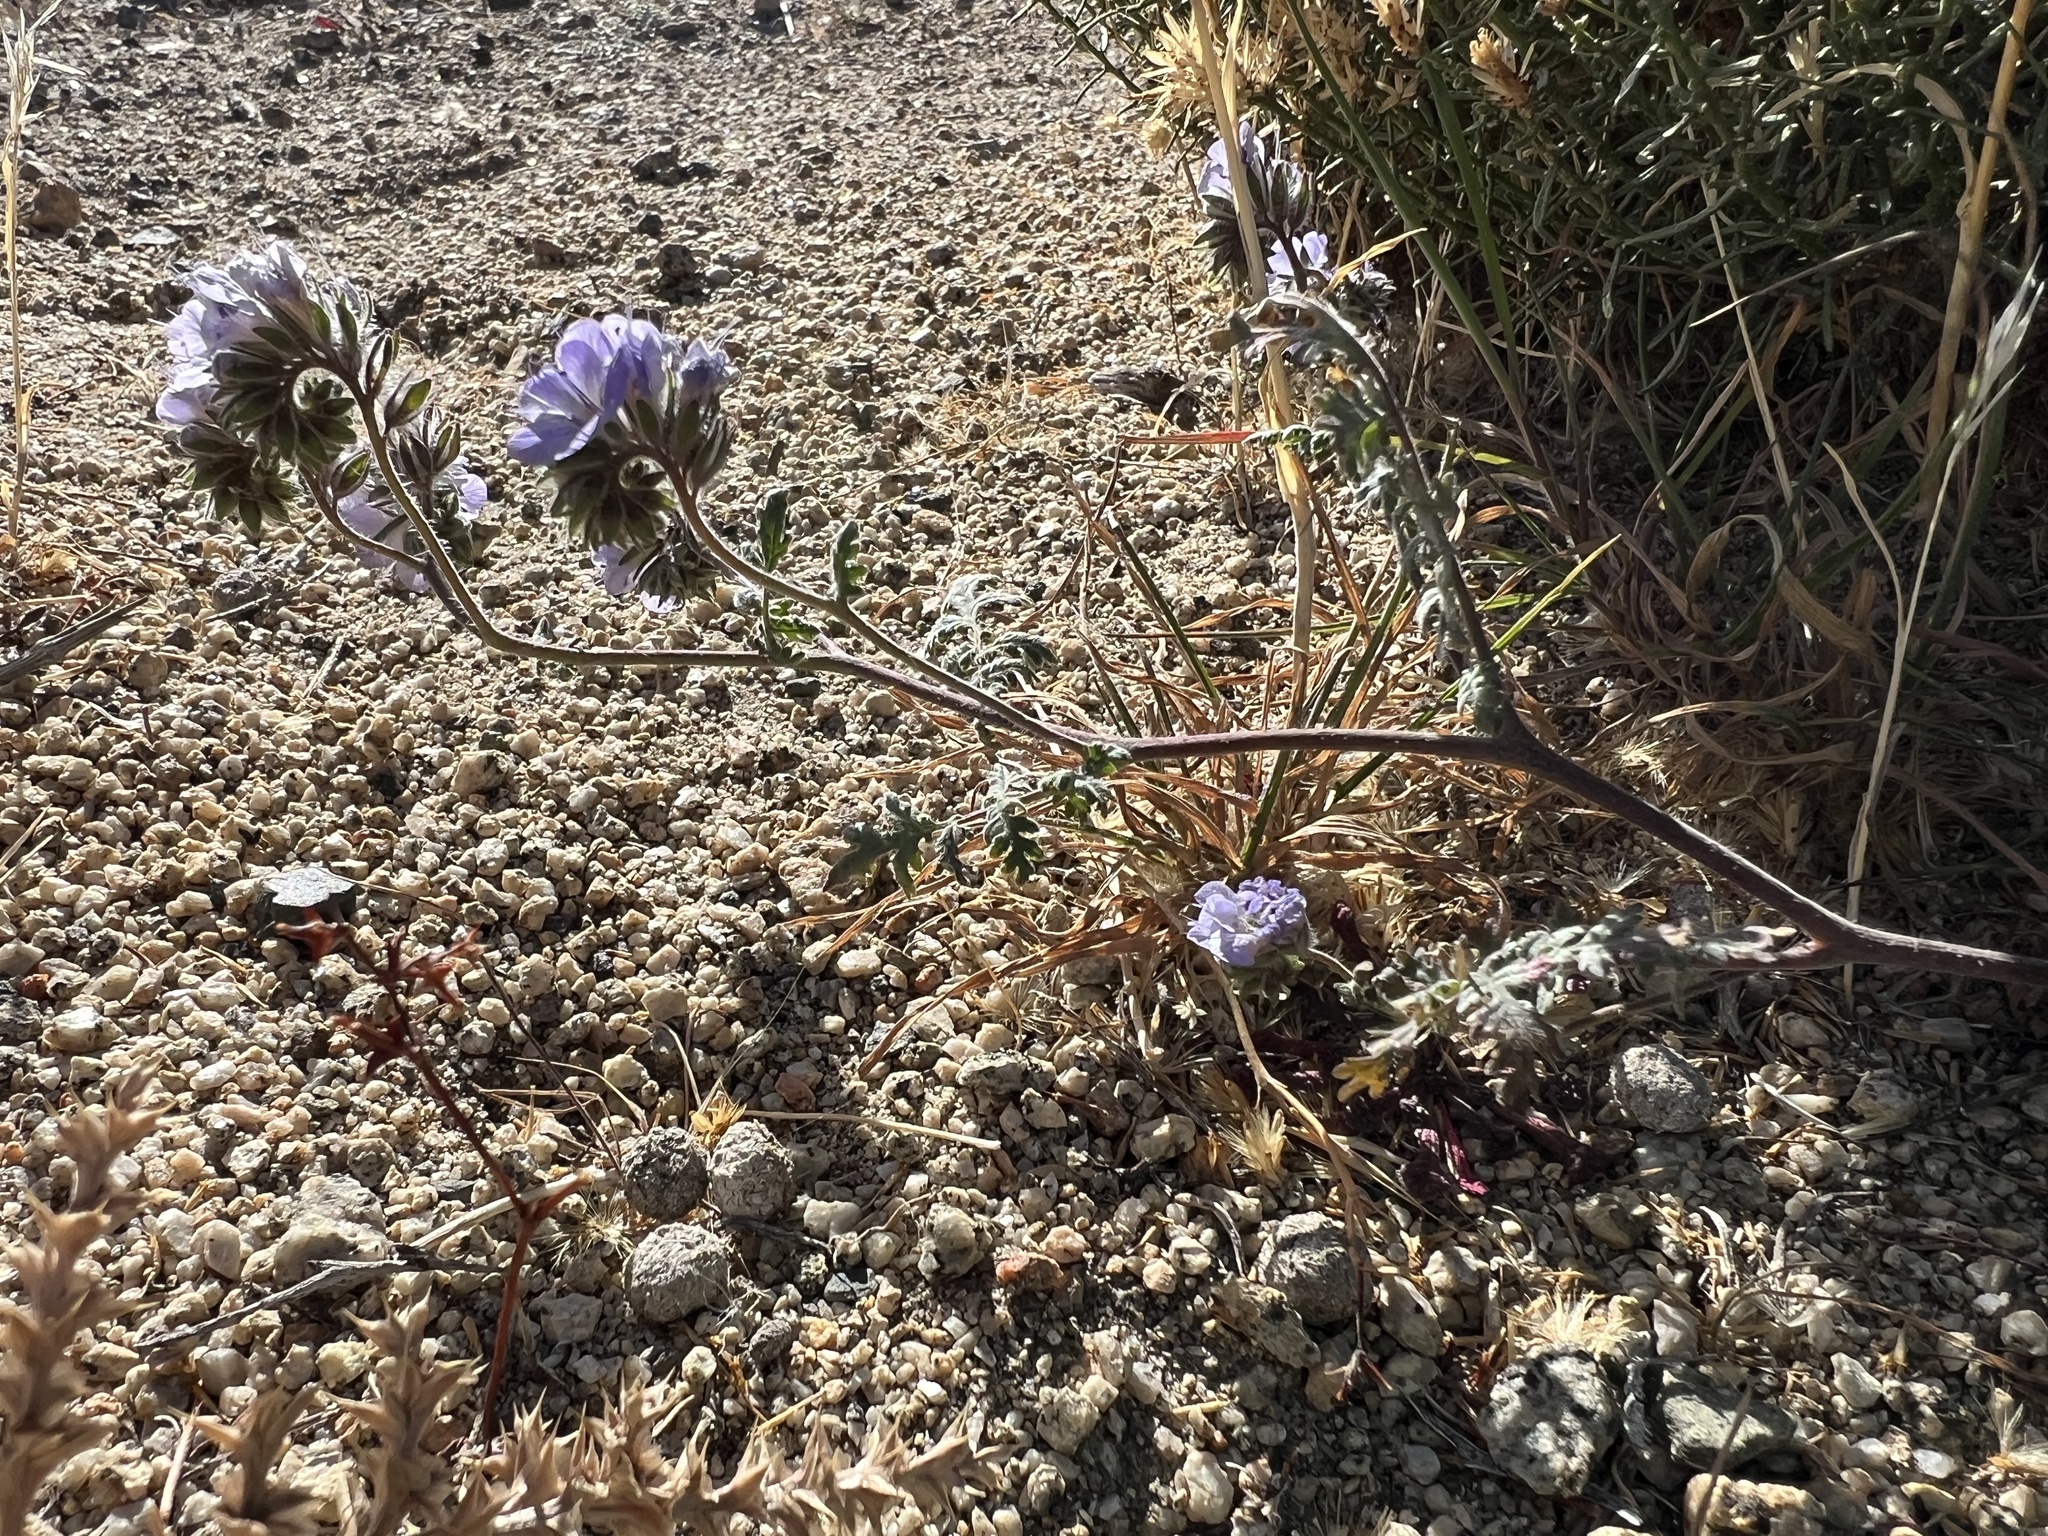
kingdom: Plantae
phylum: Tracheophyta
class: Magnoliopsida
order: Boraginales
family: Hydrophyllaceae
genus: Phacelia
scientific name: Phacelia distans
